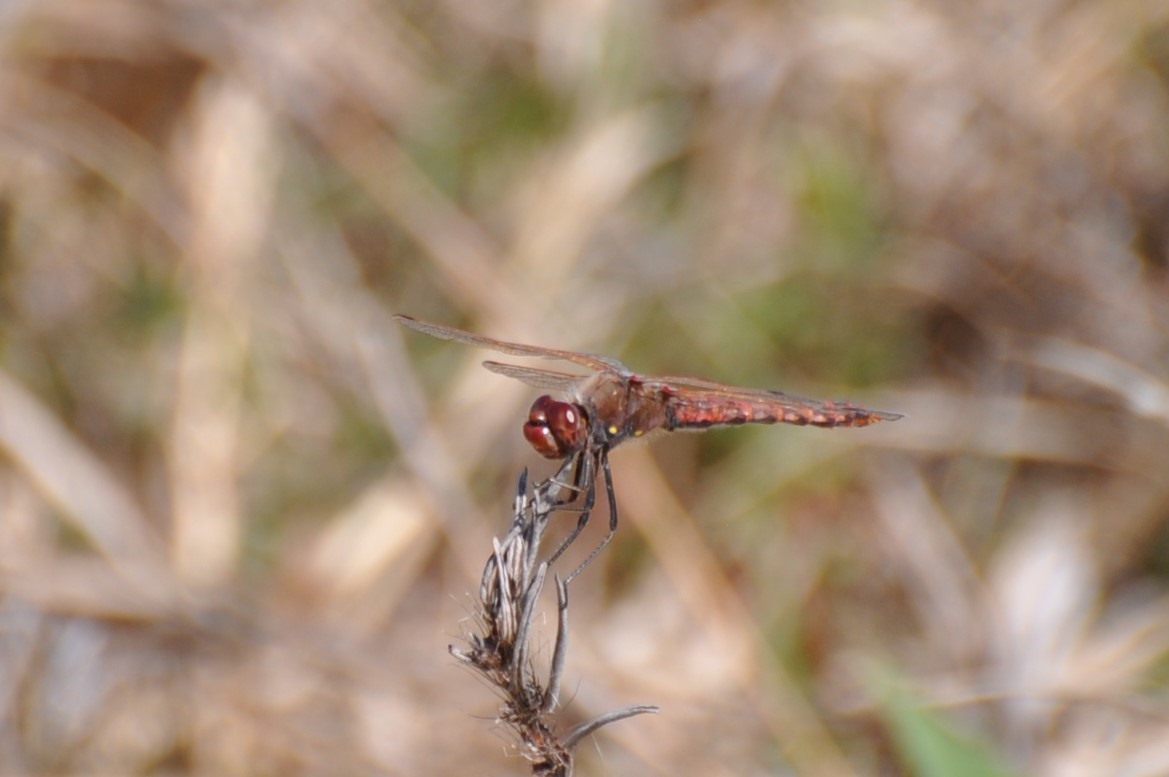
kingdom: Animalia
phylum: Arthropoda
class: Insecta
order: Odonata
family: Libellulidae
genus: Sympetrum
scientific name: Sympetrum corruptum
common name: Variegated meadowhawk
